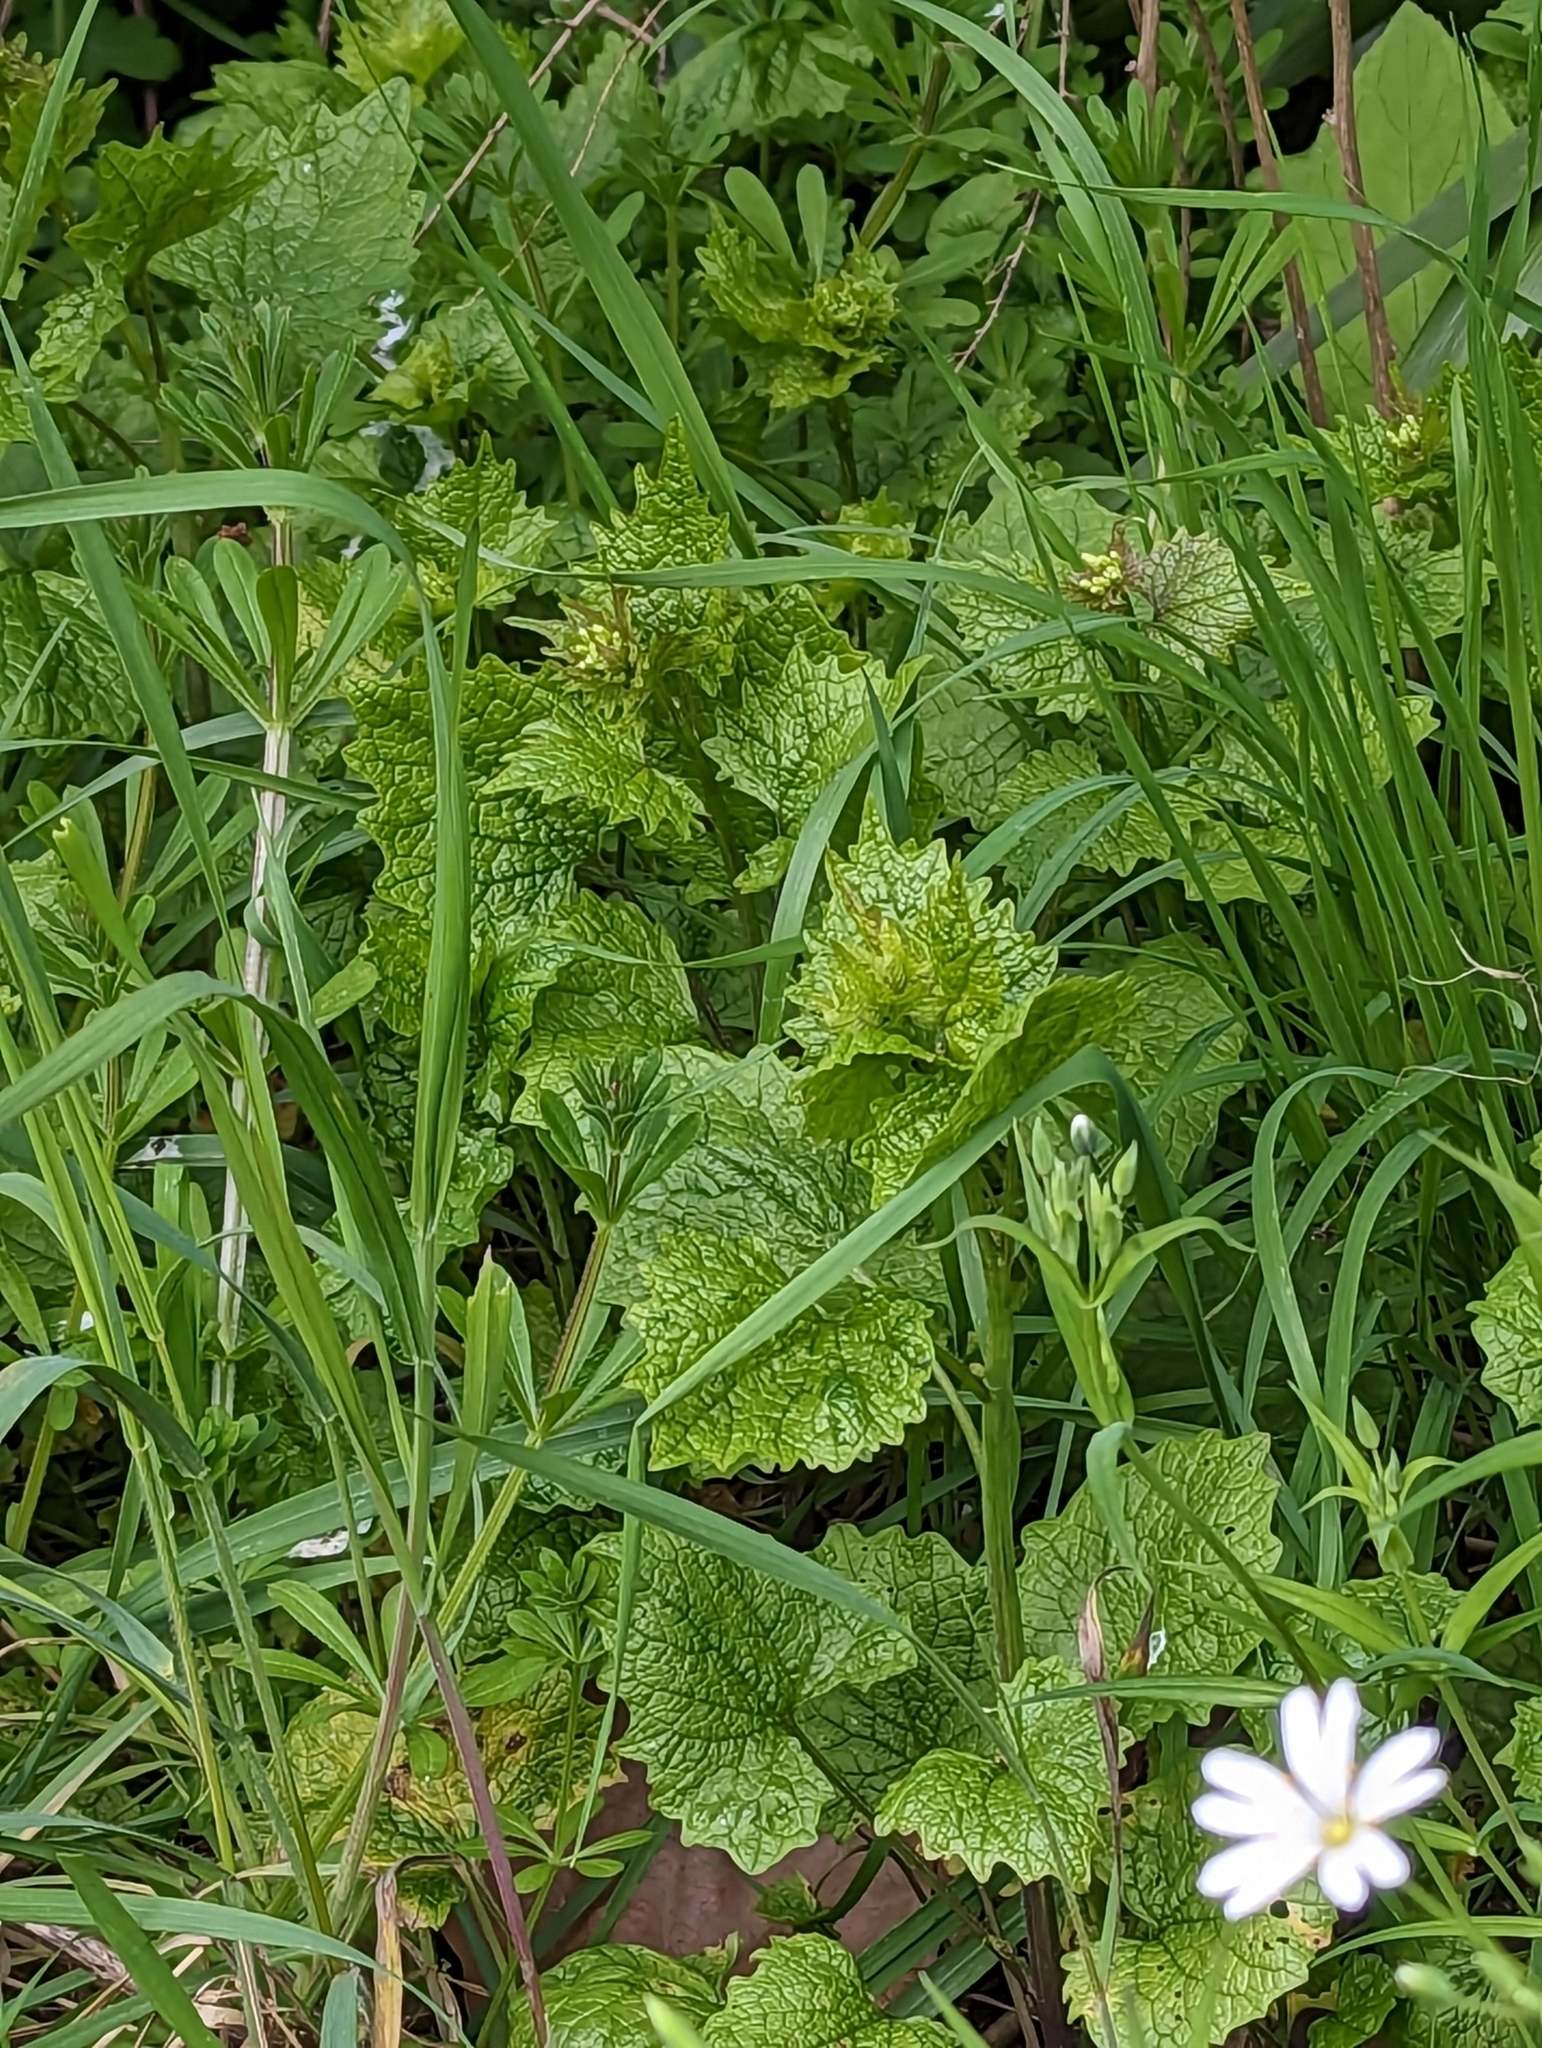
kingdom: Plantae
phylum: Tracheophyta
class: Magnoliopsida
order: Brassicales
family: Brassicaceae
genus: Alliaria
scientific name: Alliaria petiolata
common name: Garlic mustard
